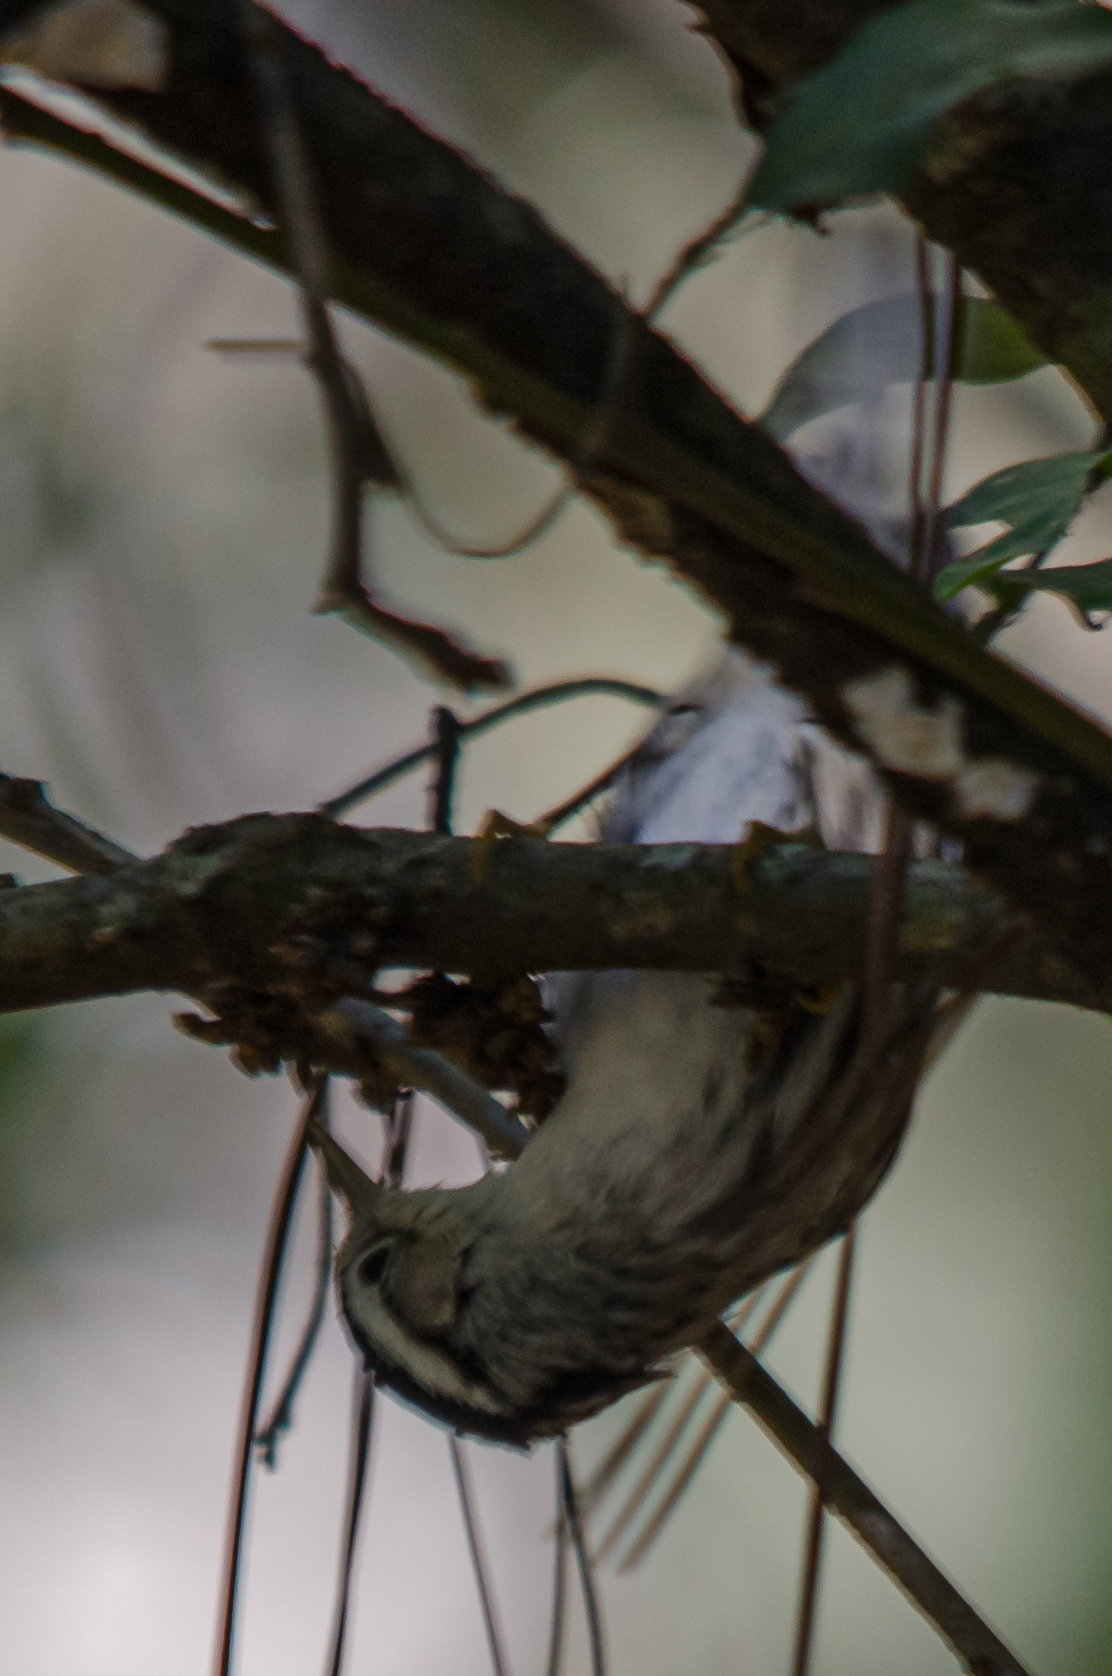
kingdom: Animalia
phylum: Chordata
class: Aves
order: Passeriformes
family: Parulidae
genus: Mniotilta
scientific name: Mniotilta varia
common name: Black-and-white warbler
